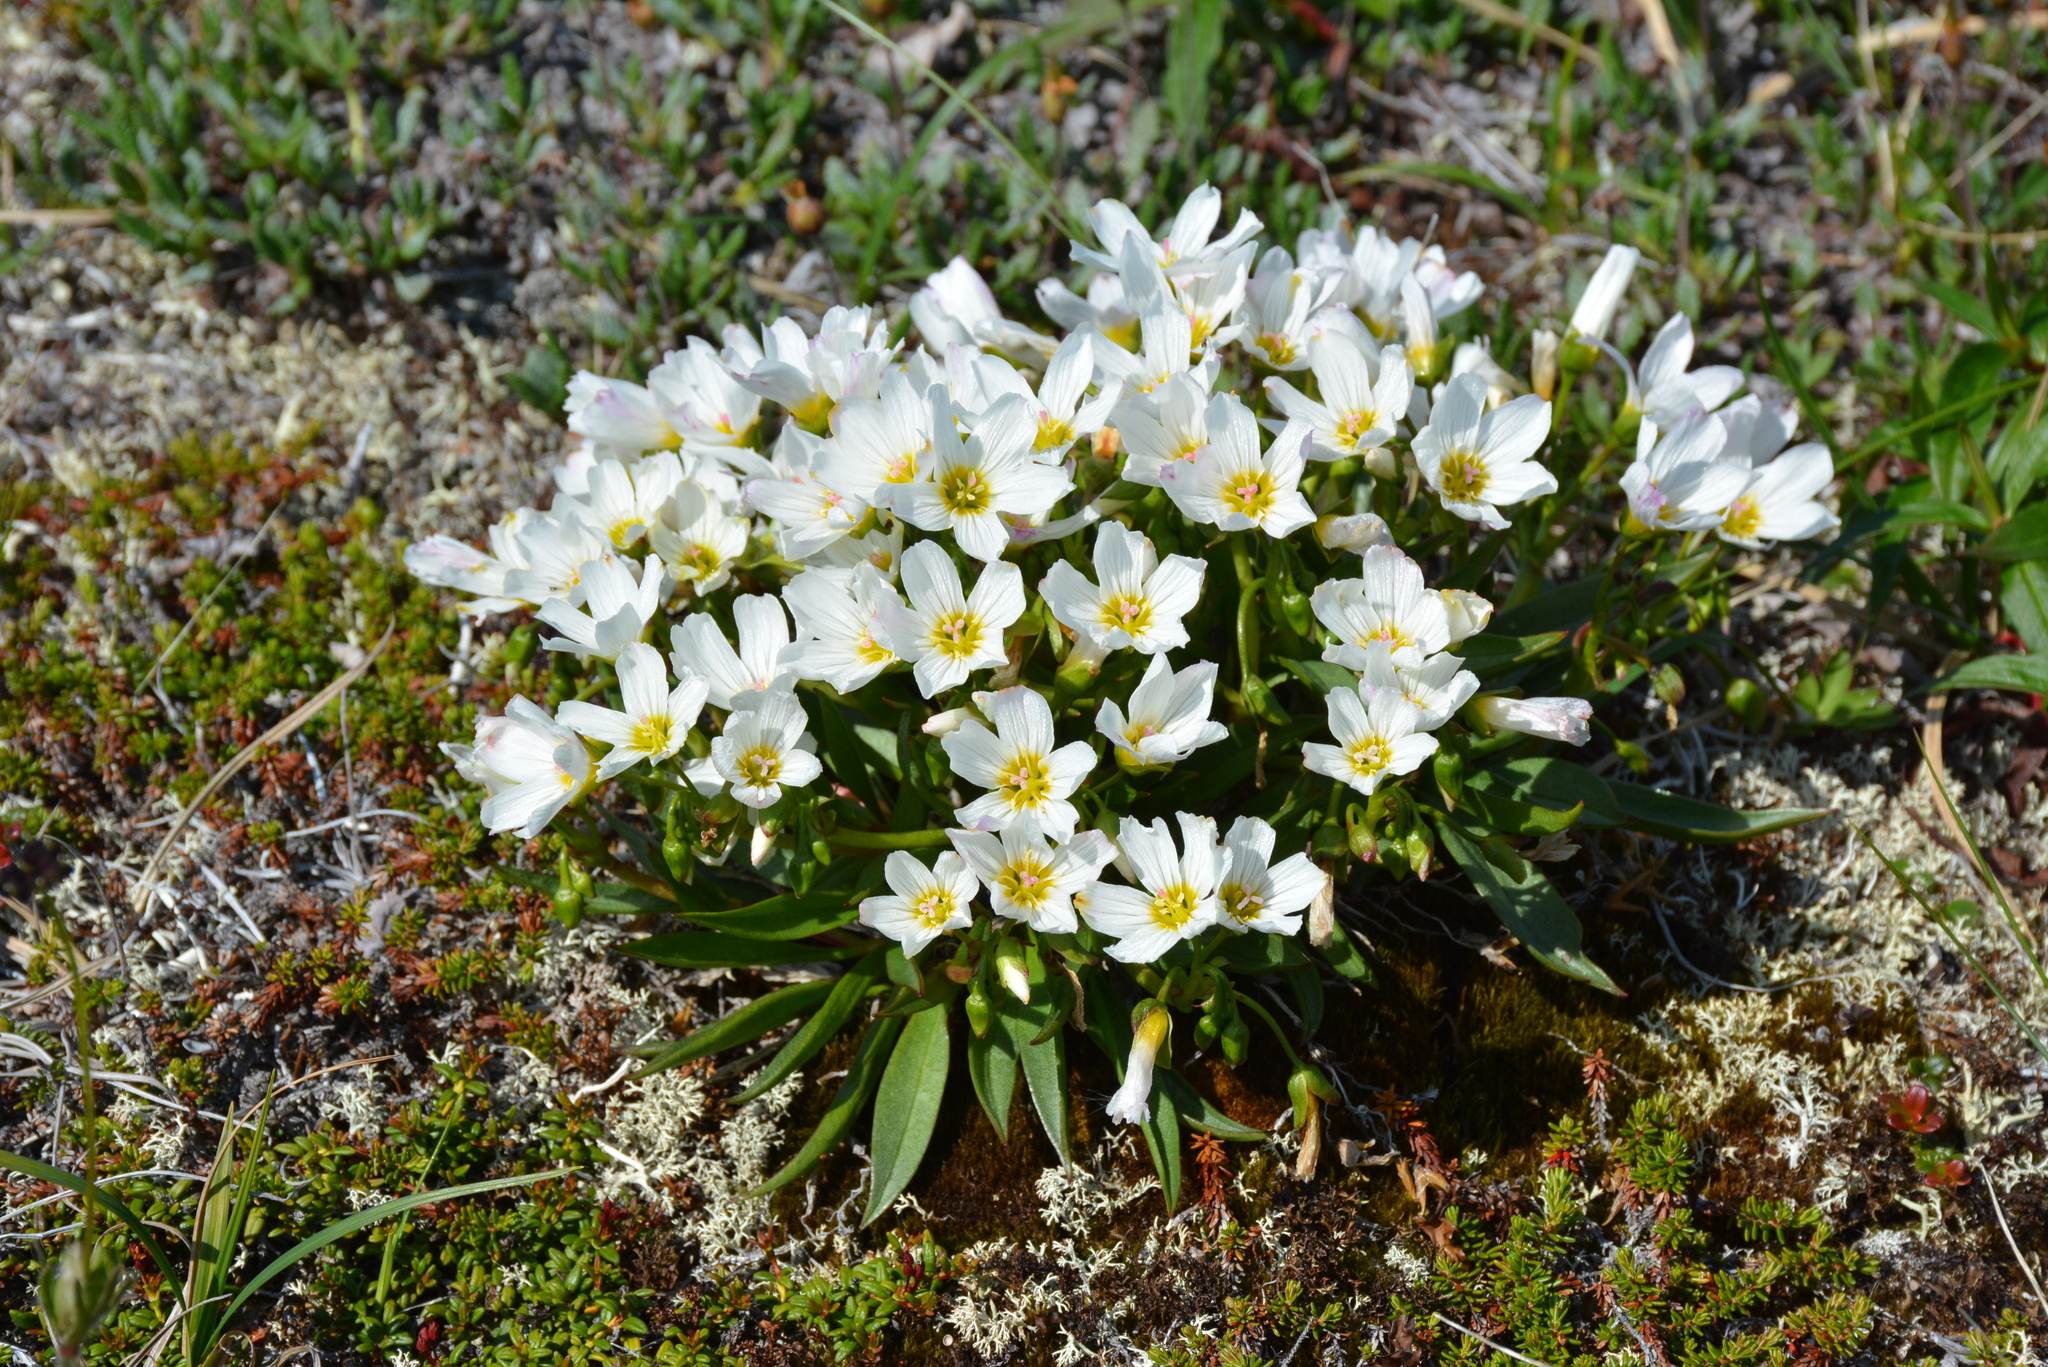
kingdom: Plantae
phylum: Tracheophyta
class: Magnoliopsida
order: Caryophyllales
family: Montiaceae
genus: Claytonia
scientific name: Claytonia acutifolia
